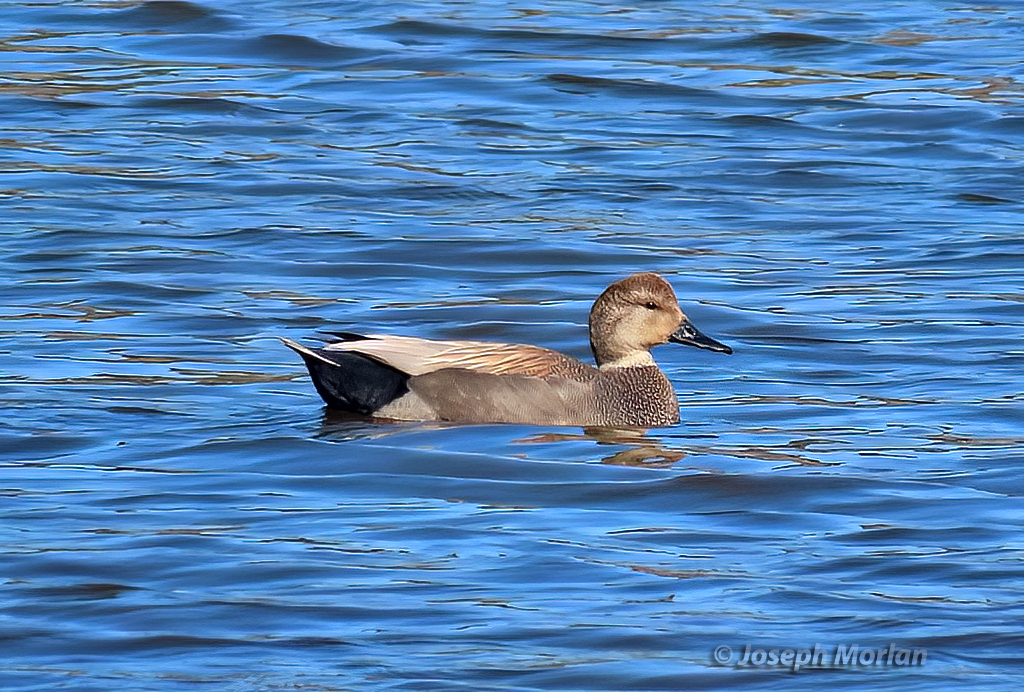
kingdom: Animalia
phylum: Chordata
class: Aves
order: Anseriformes
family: Anatidae
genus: Mareca
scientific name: Mareca strepera
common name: Gadwall
